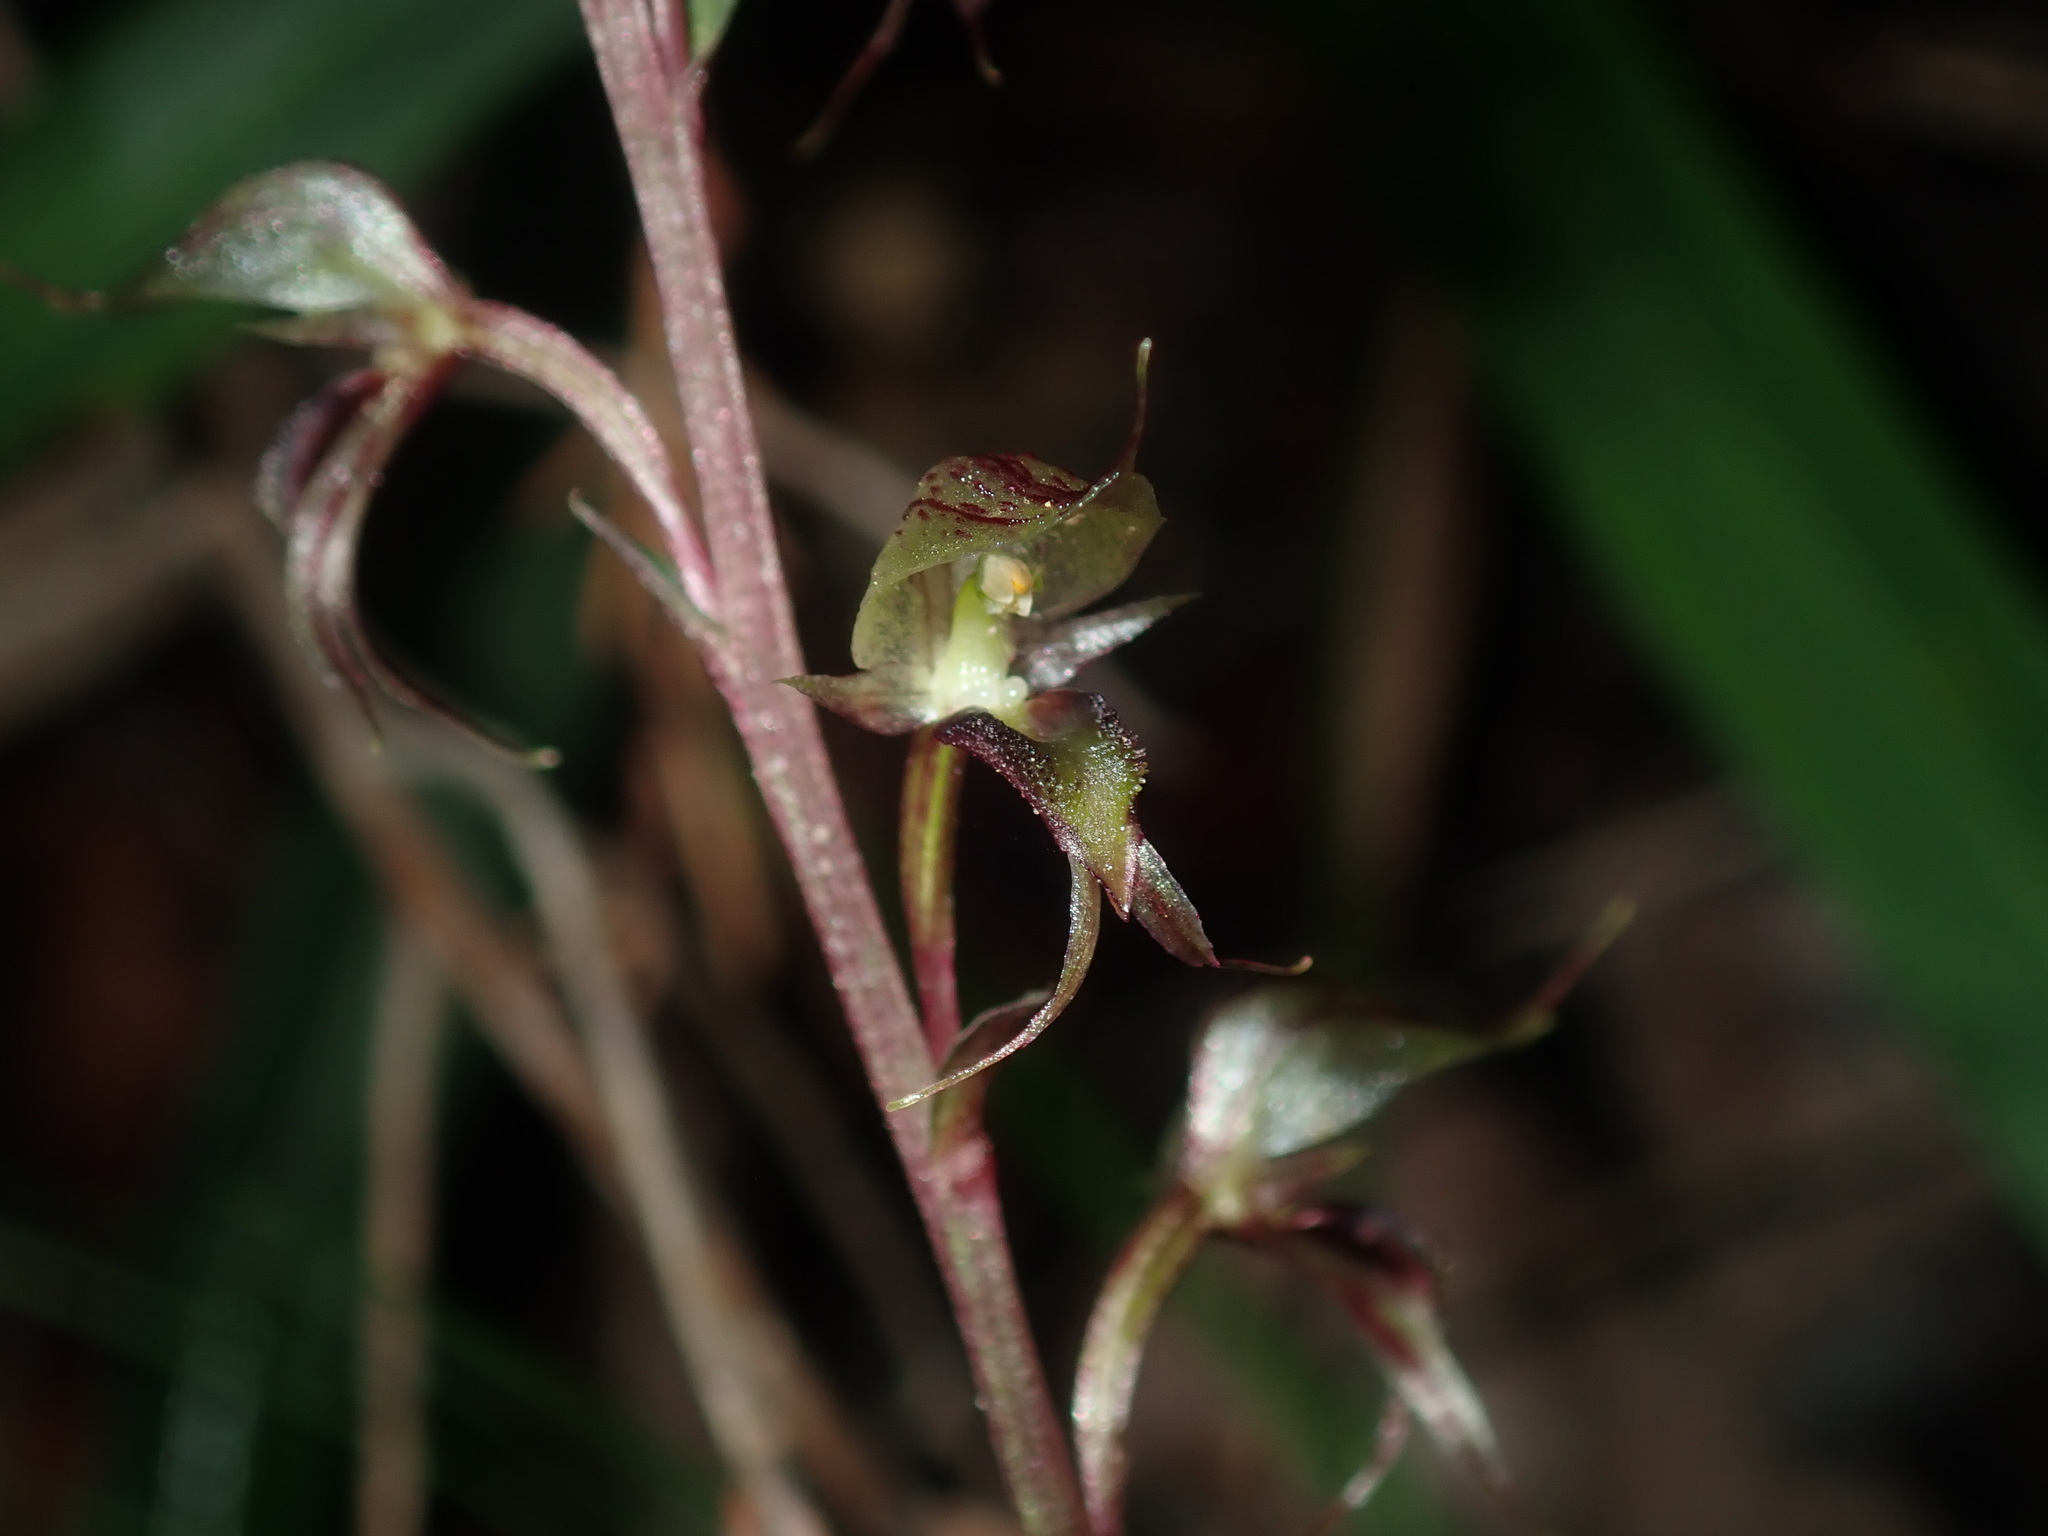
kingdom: Plantae
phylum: Tracheophyta
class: Liliopsida
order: Asparagales
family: Orchidaceae
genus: Acianthus
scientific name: Acianthus fornicatus
